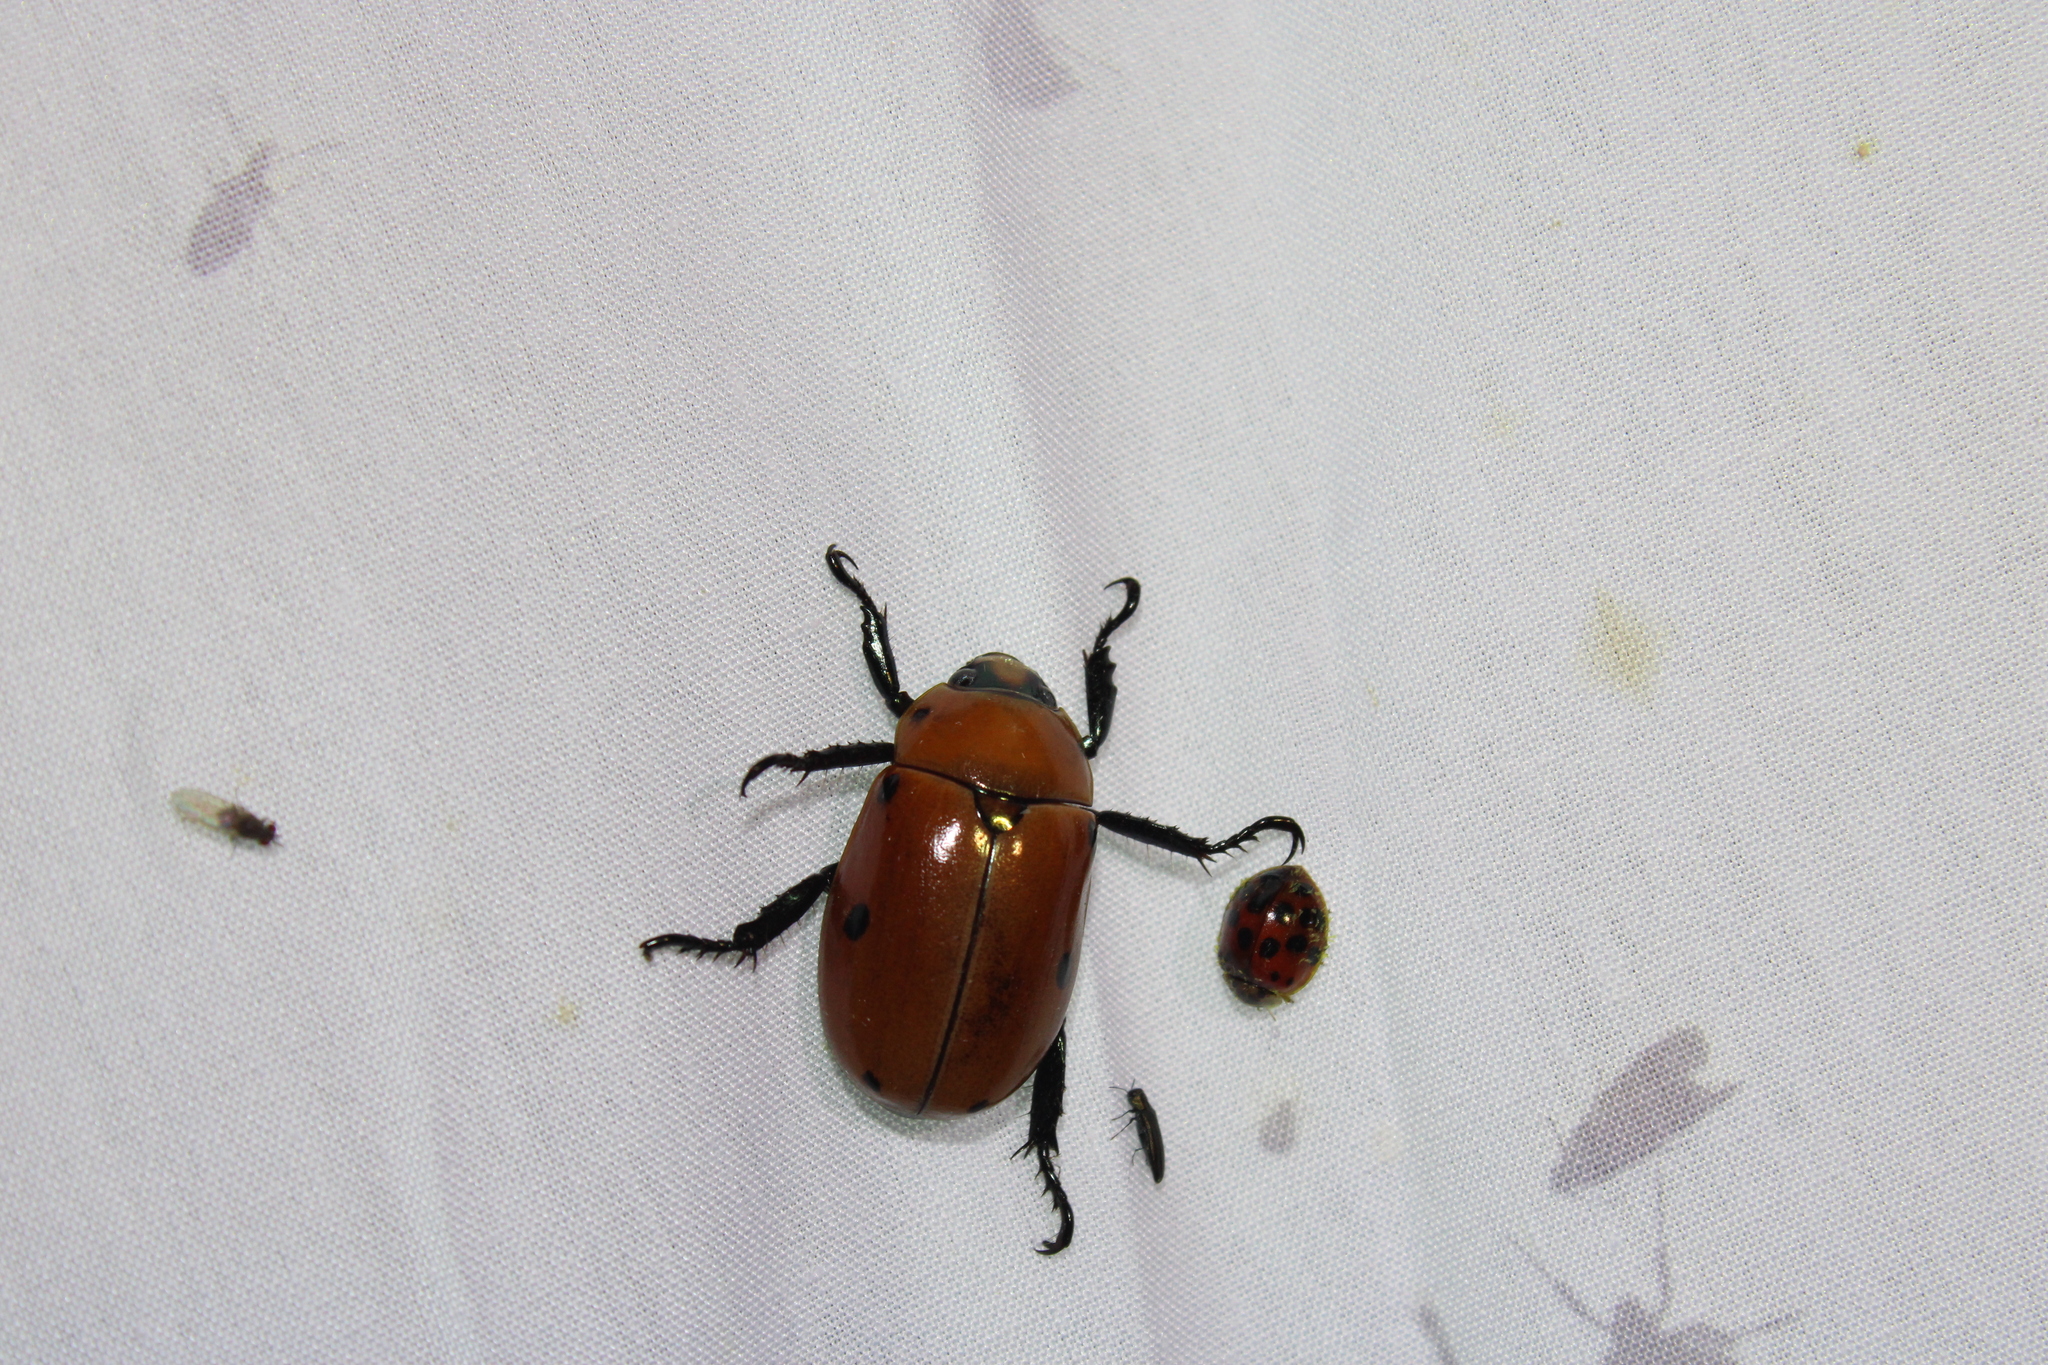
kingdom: Animalia
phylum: Arthropoda
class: Insecta
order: Coleoptera
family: Scarabaeidae
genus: Pelidnota
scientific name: Pelidnota punctata
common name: Grapevine beetle
